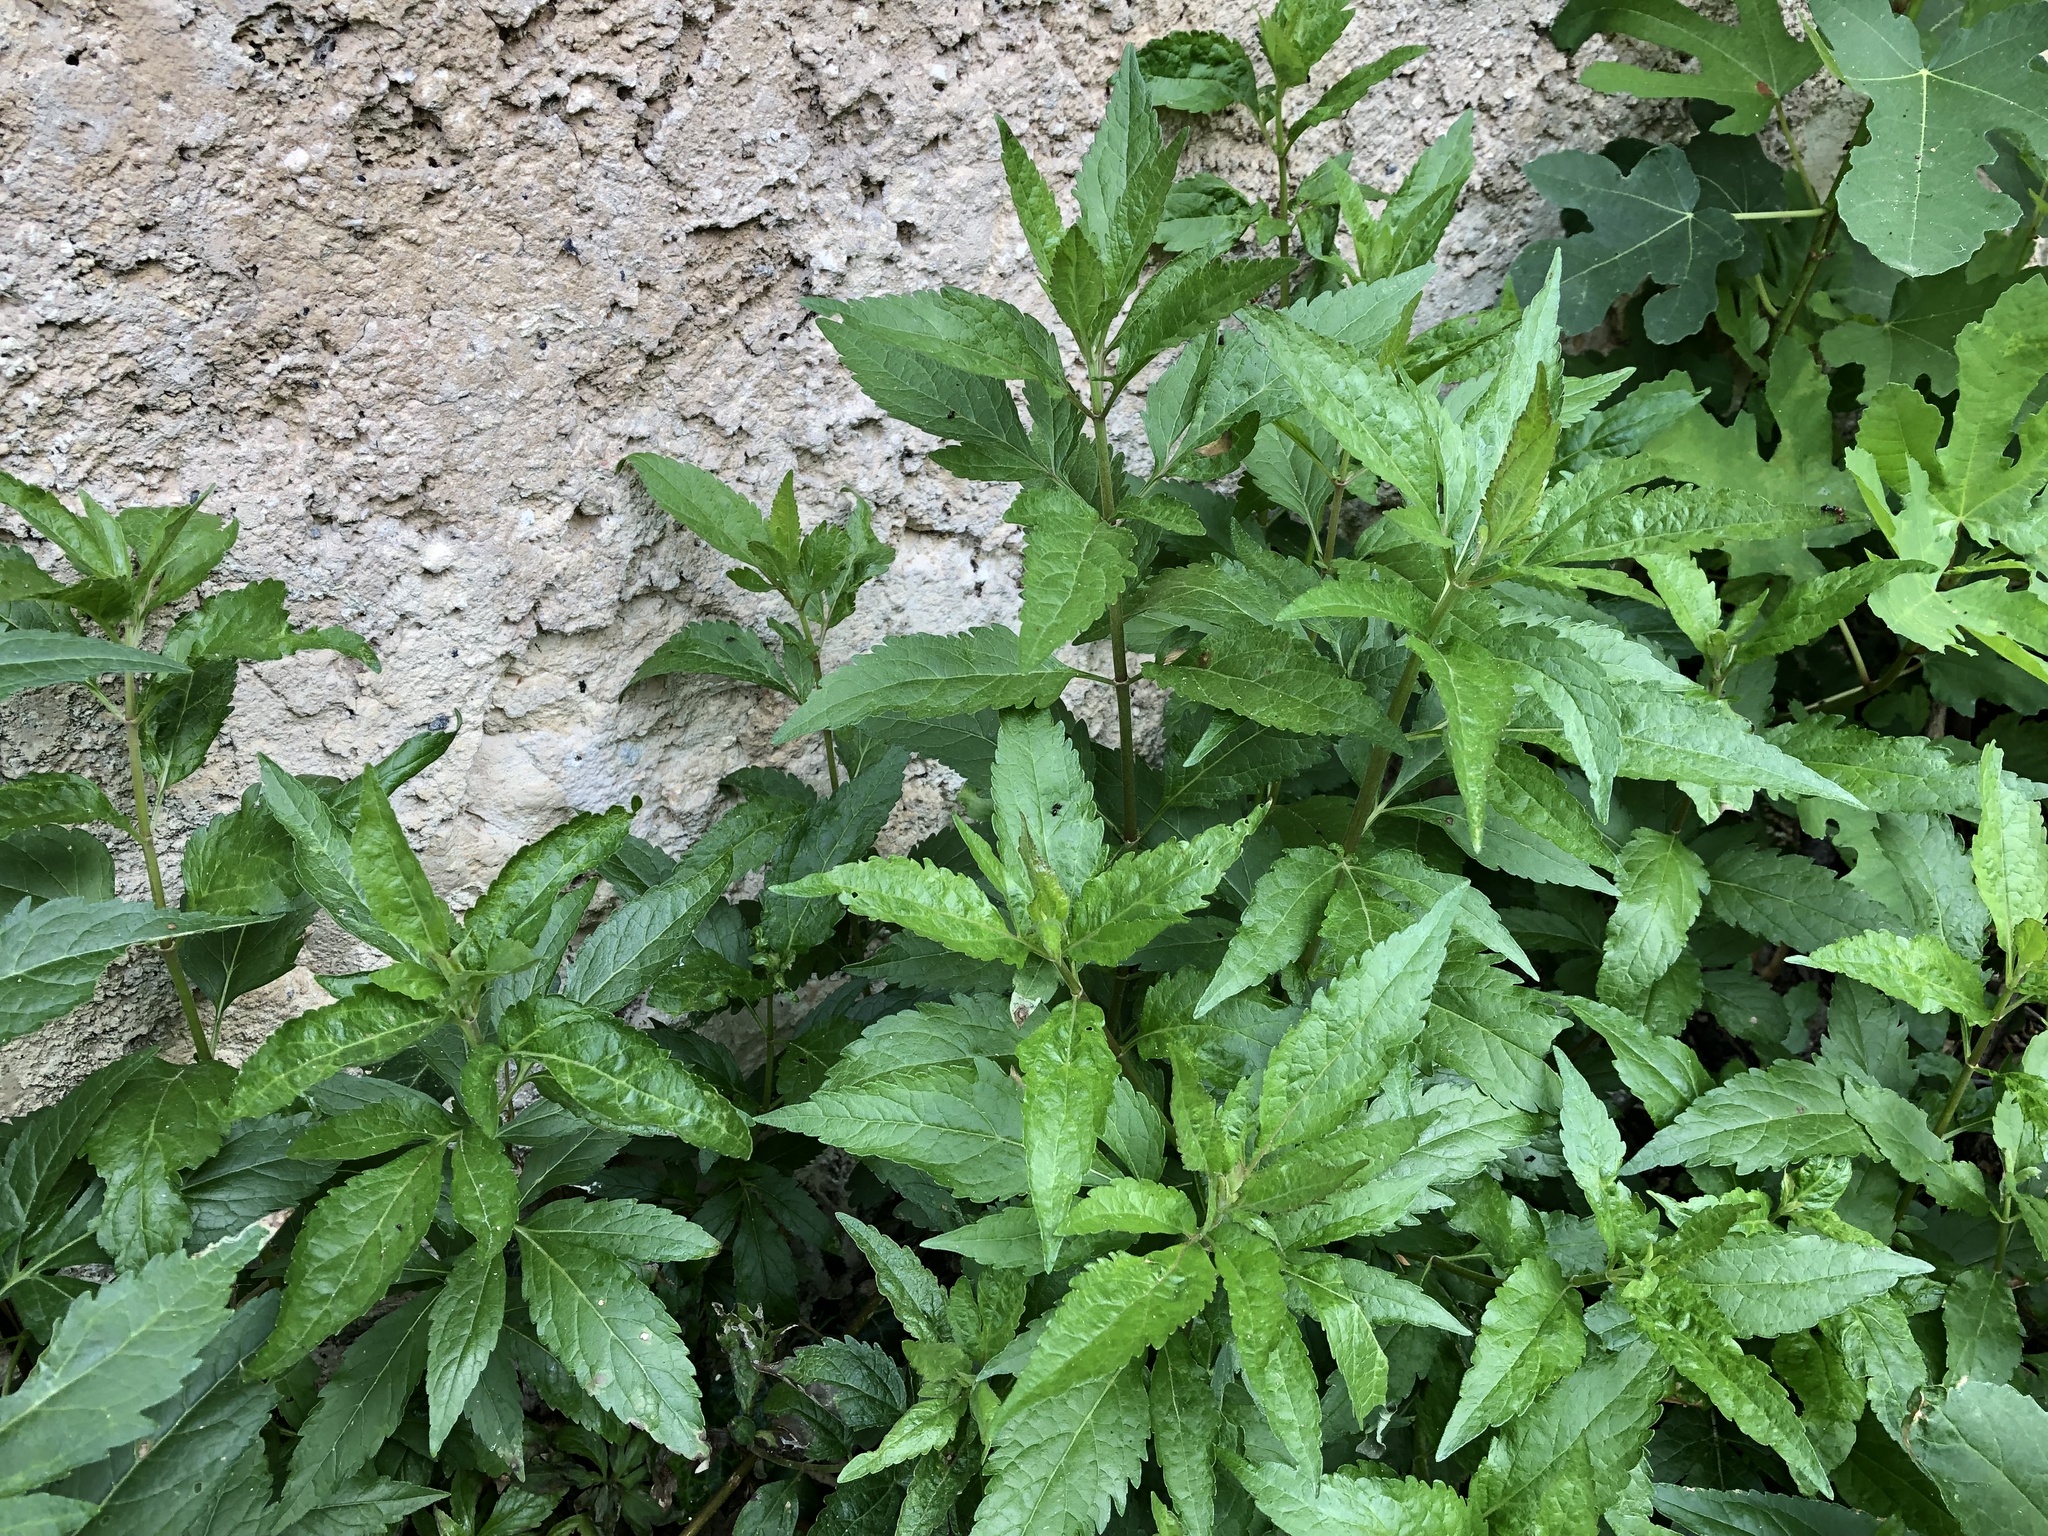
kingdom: Plantae
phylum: Tracheophyta
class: Magnoliopsida
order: Asterales
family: Asteraceae
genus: Eupatorium
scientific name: Eupatorium cannabinum
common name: Hemp-agrimony
